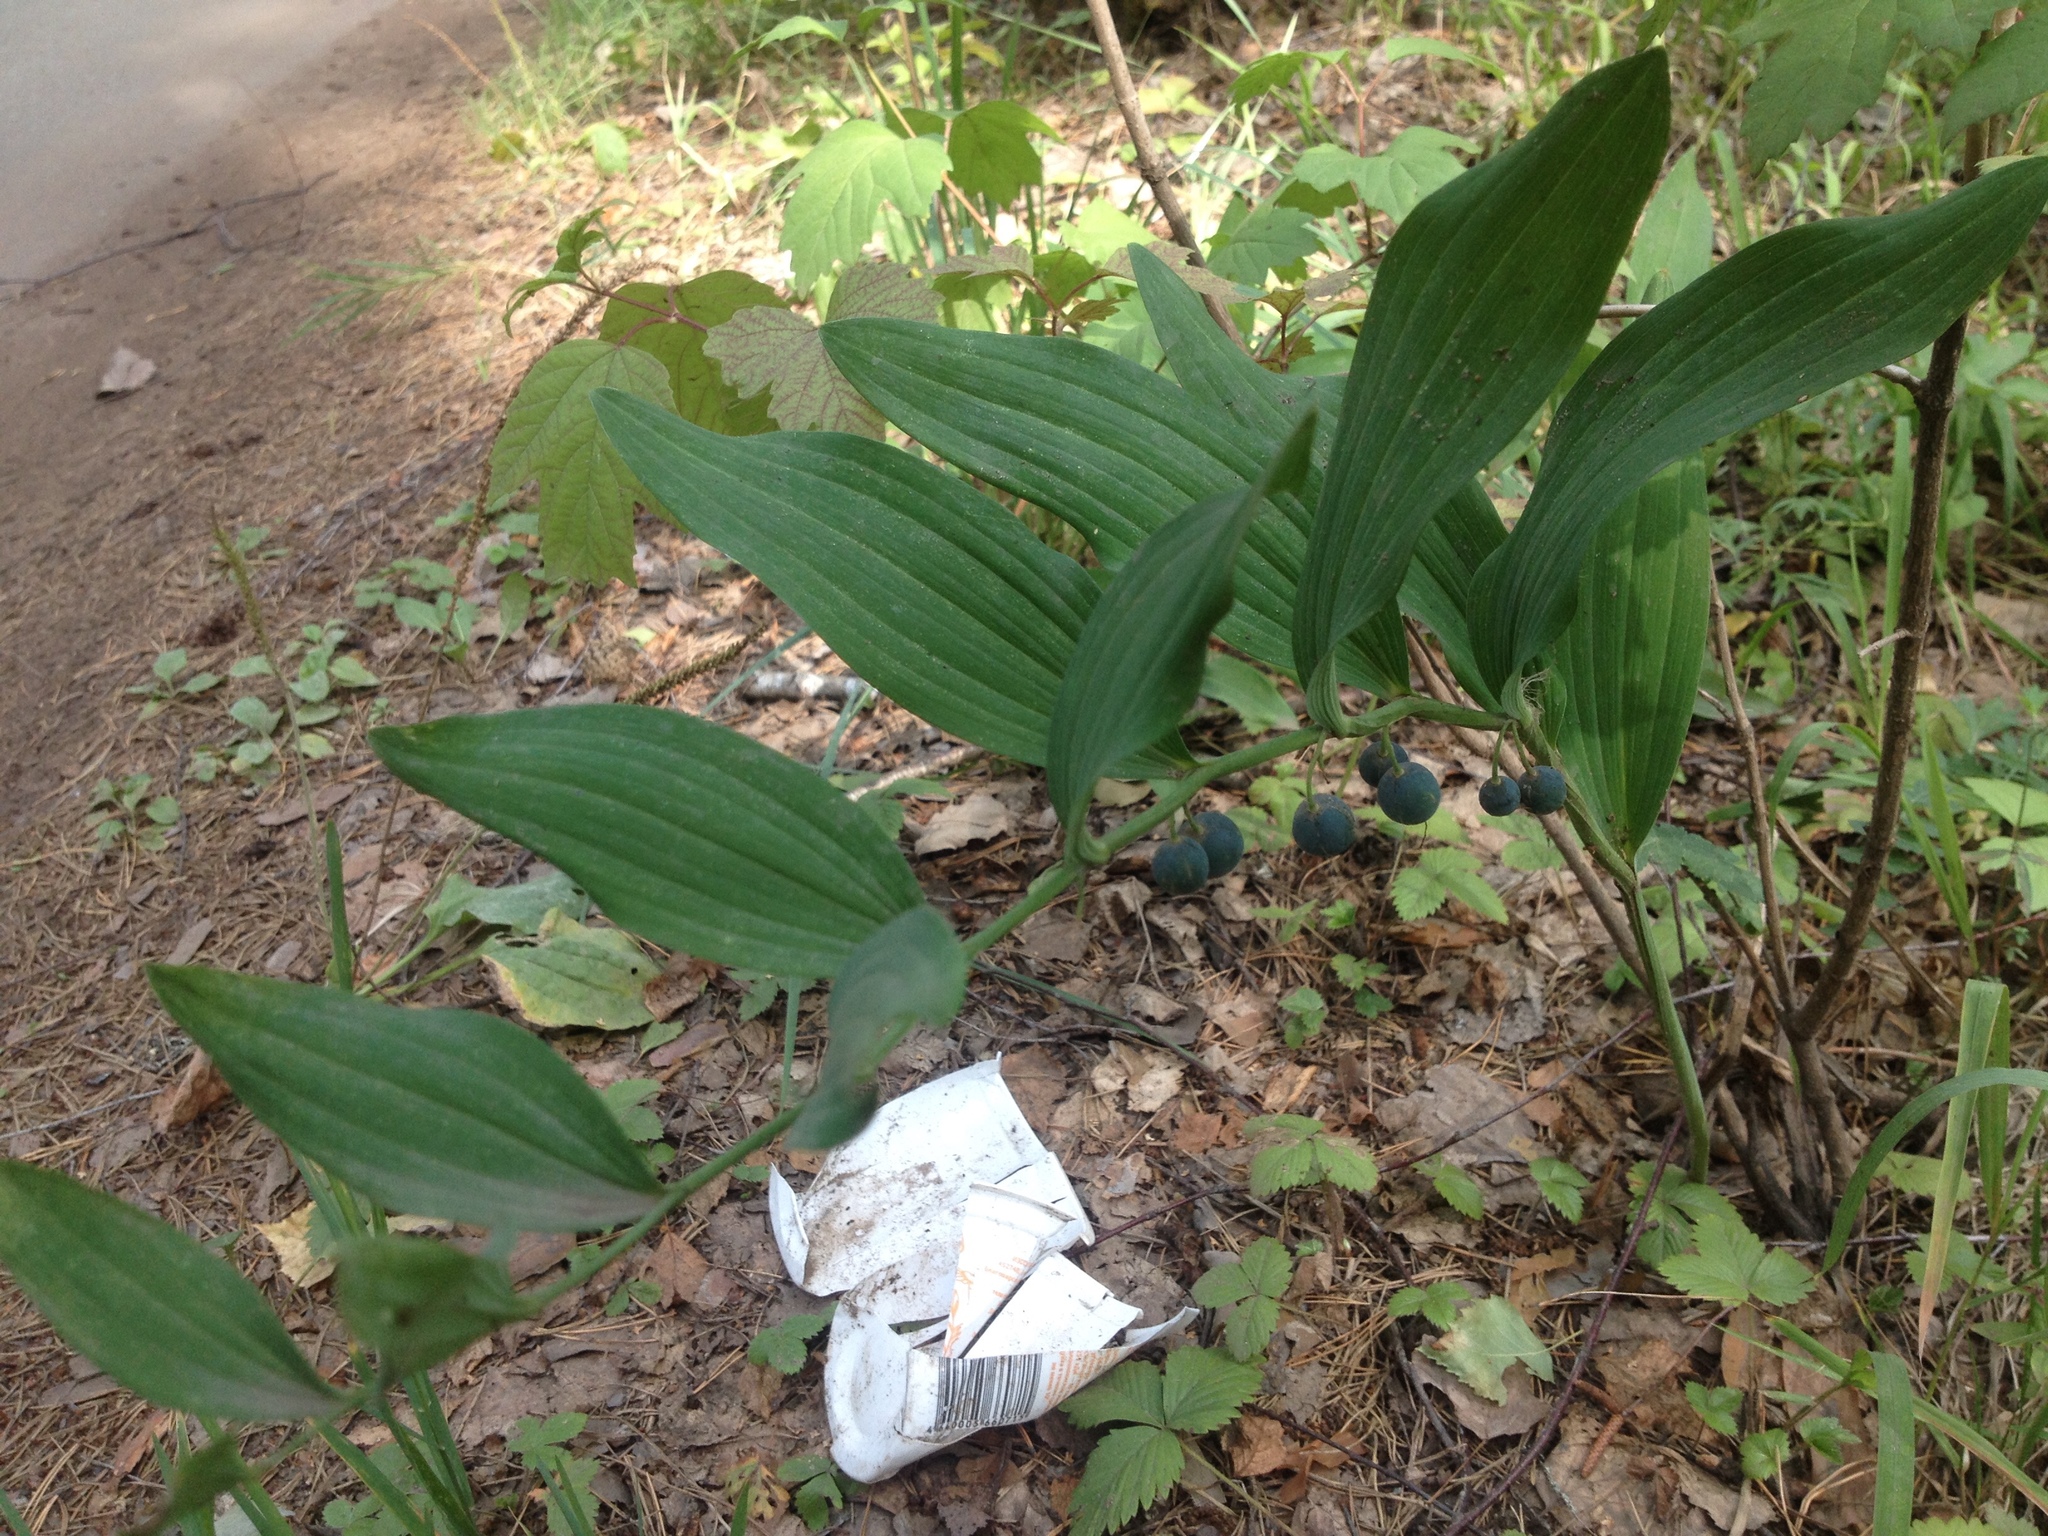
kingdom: Plantae
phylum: Tracheophyta
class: Liliopsida
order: Asparagales
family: Asparagaceae
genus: Polygonatum
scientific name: Polygonatum odoratum
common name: Angular solomon's-seal
